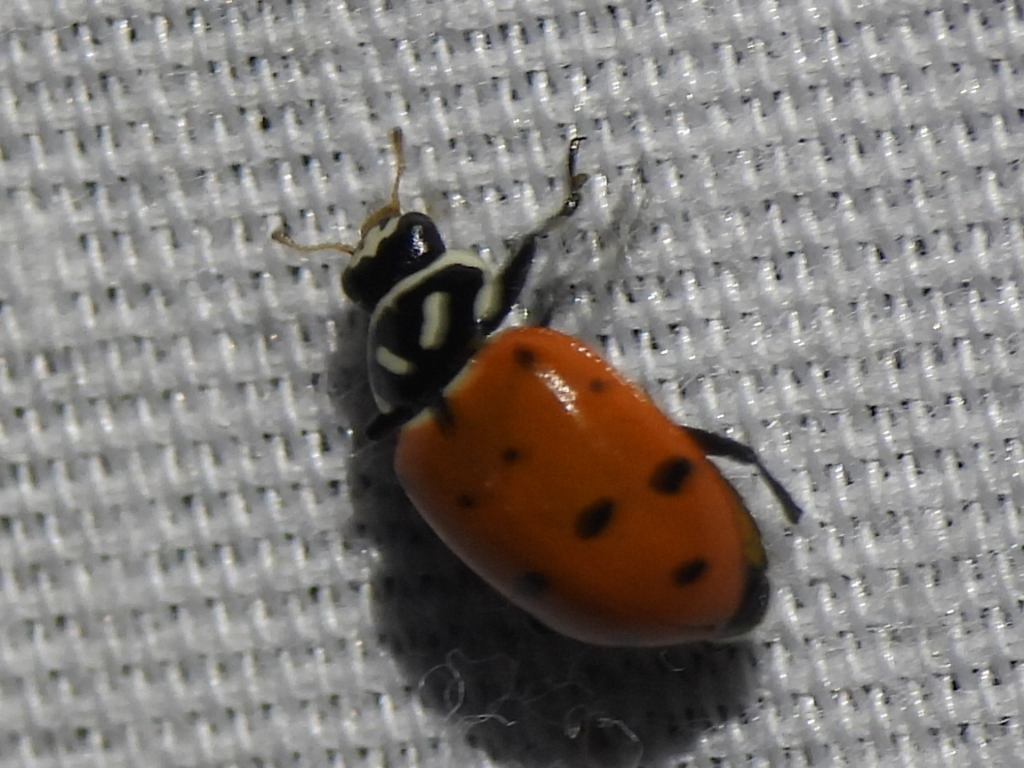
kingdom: Animalia
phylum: Arthropoda
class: Insecta
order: Coleoptera
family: Coccinellidae
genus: Hippodamia
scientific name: Hippodamia convergens
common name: Convergent lady beetle
